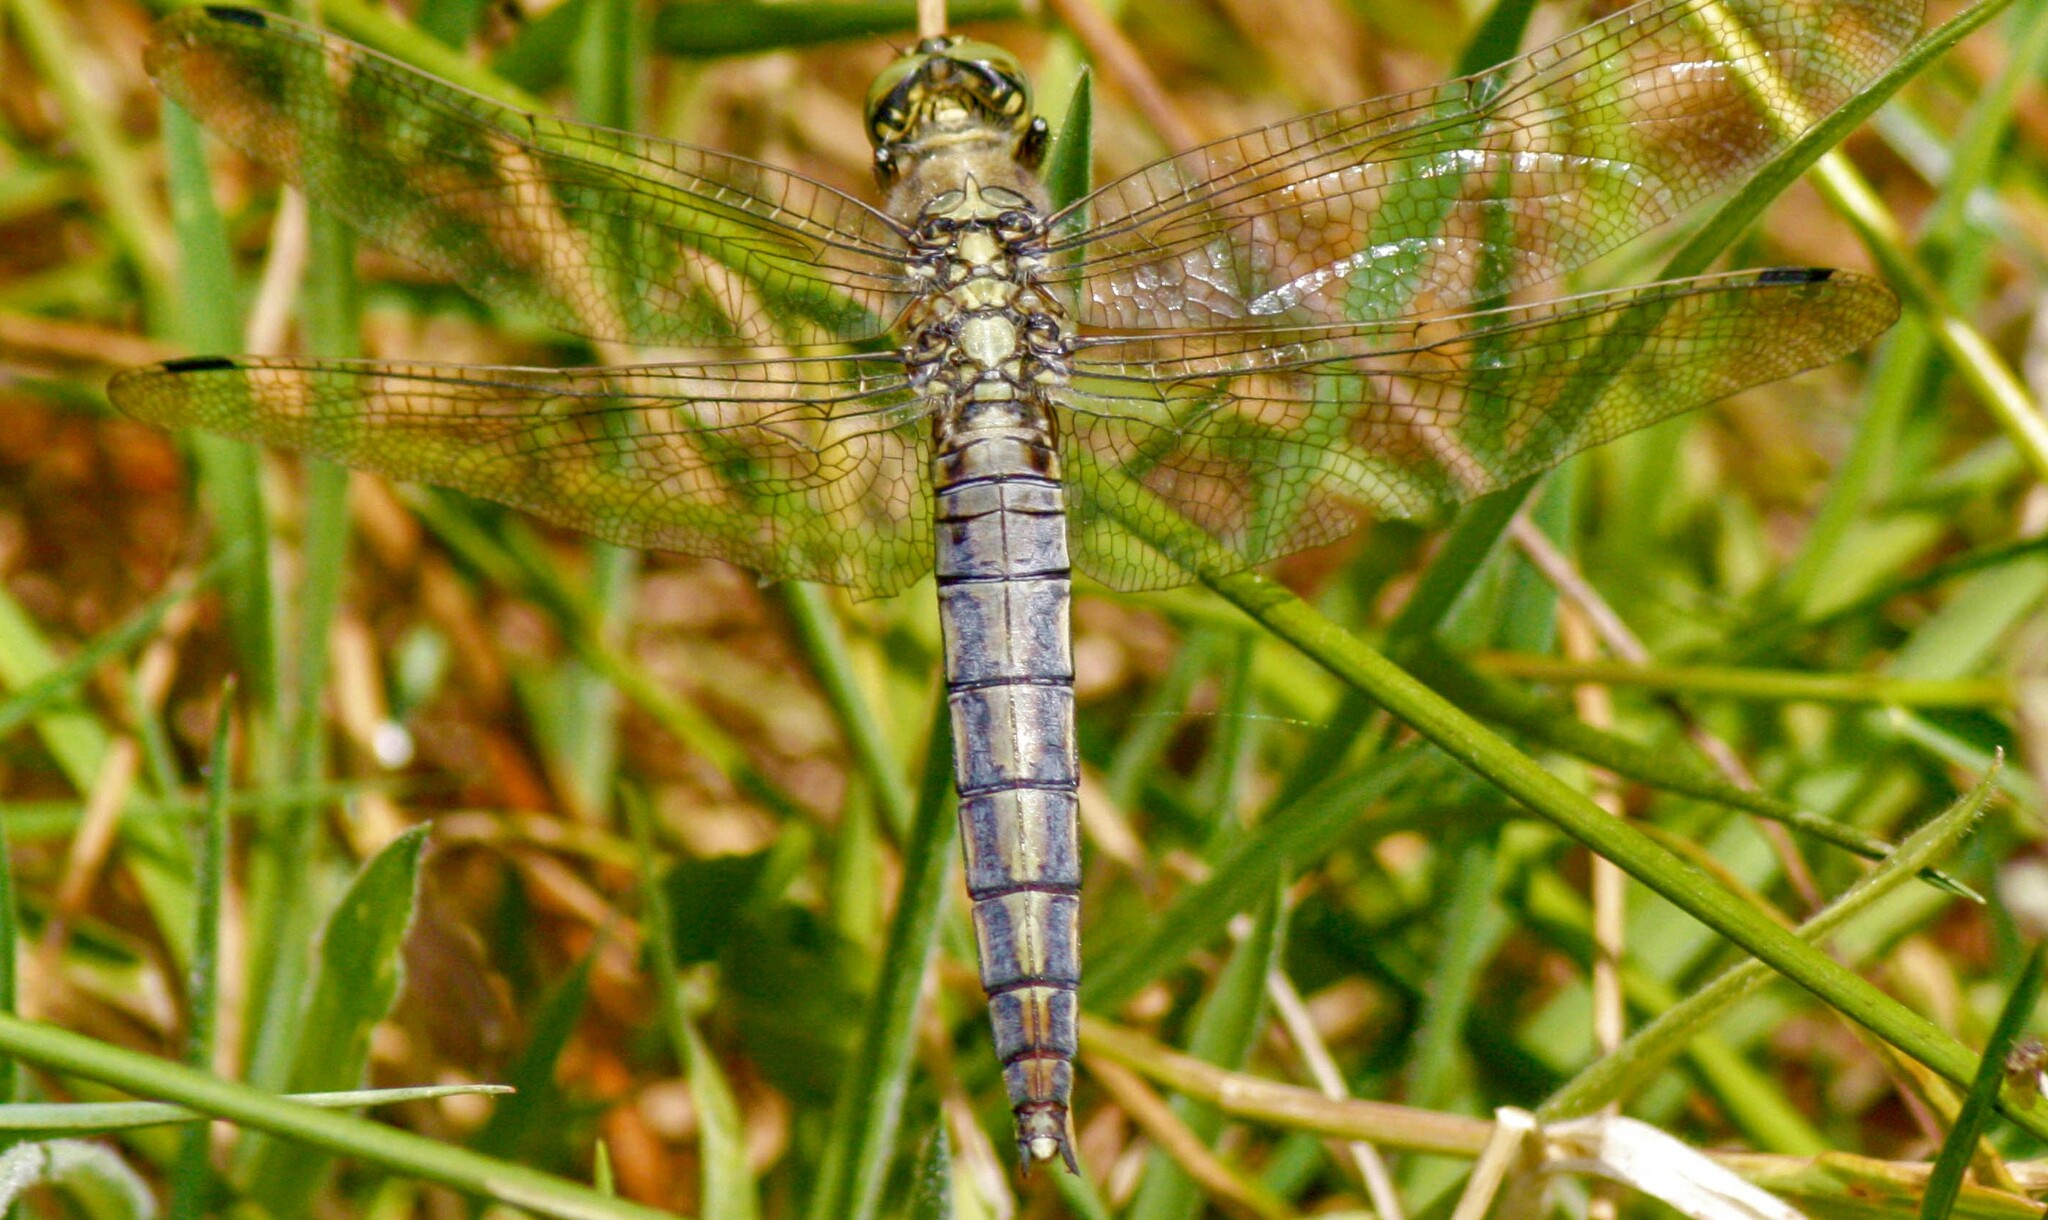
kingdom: Animalia
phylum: Arthropoda
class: Insecta
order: Odonata
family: Libellulidae
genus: Orthetrum
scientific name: Orthetrum cancellatum
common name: Black-tailed skimmer
